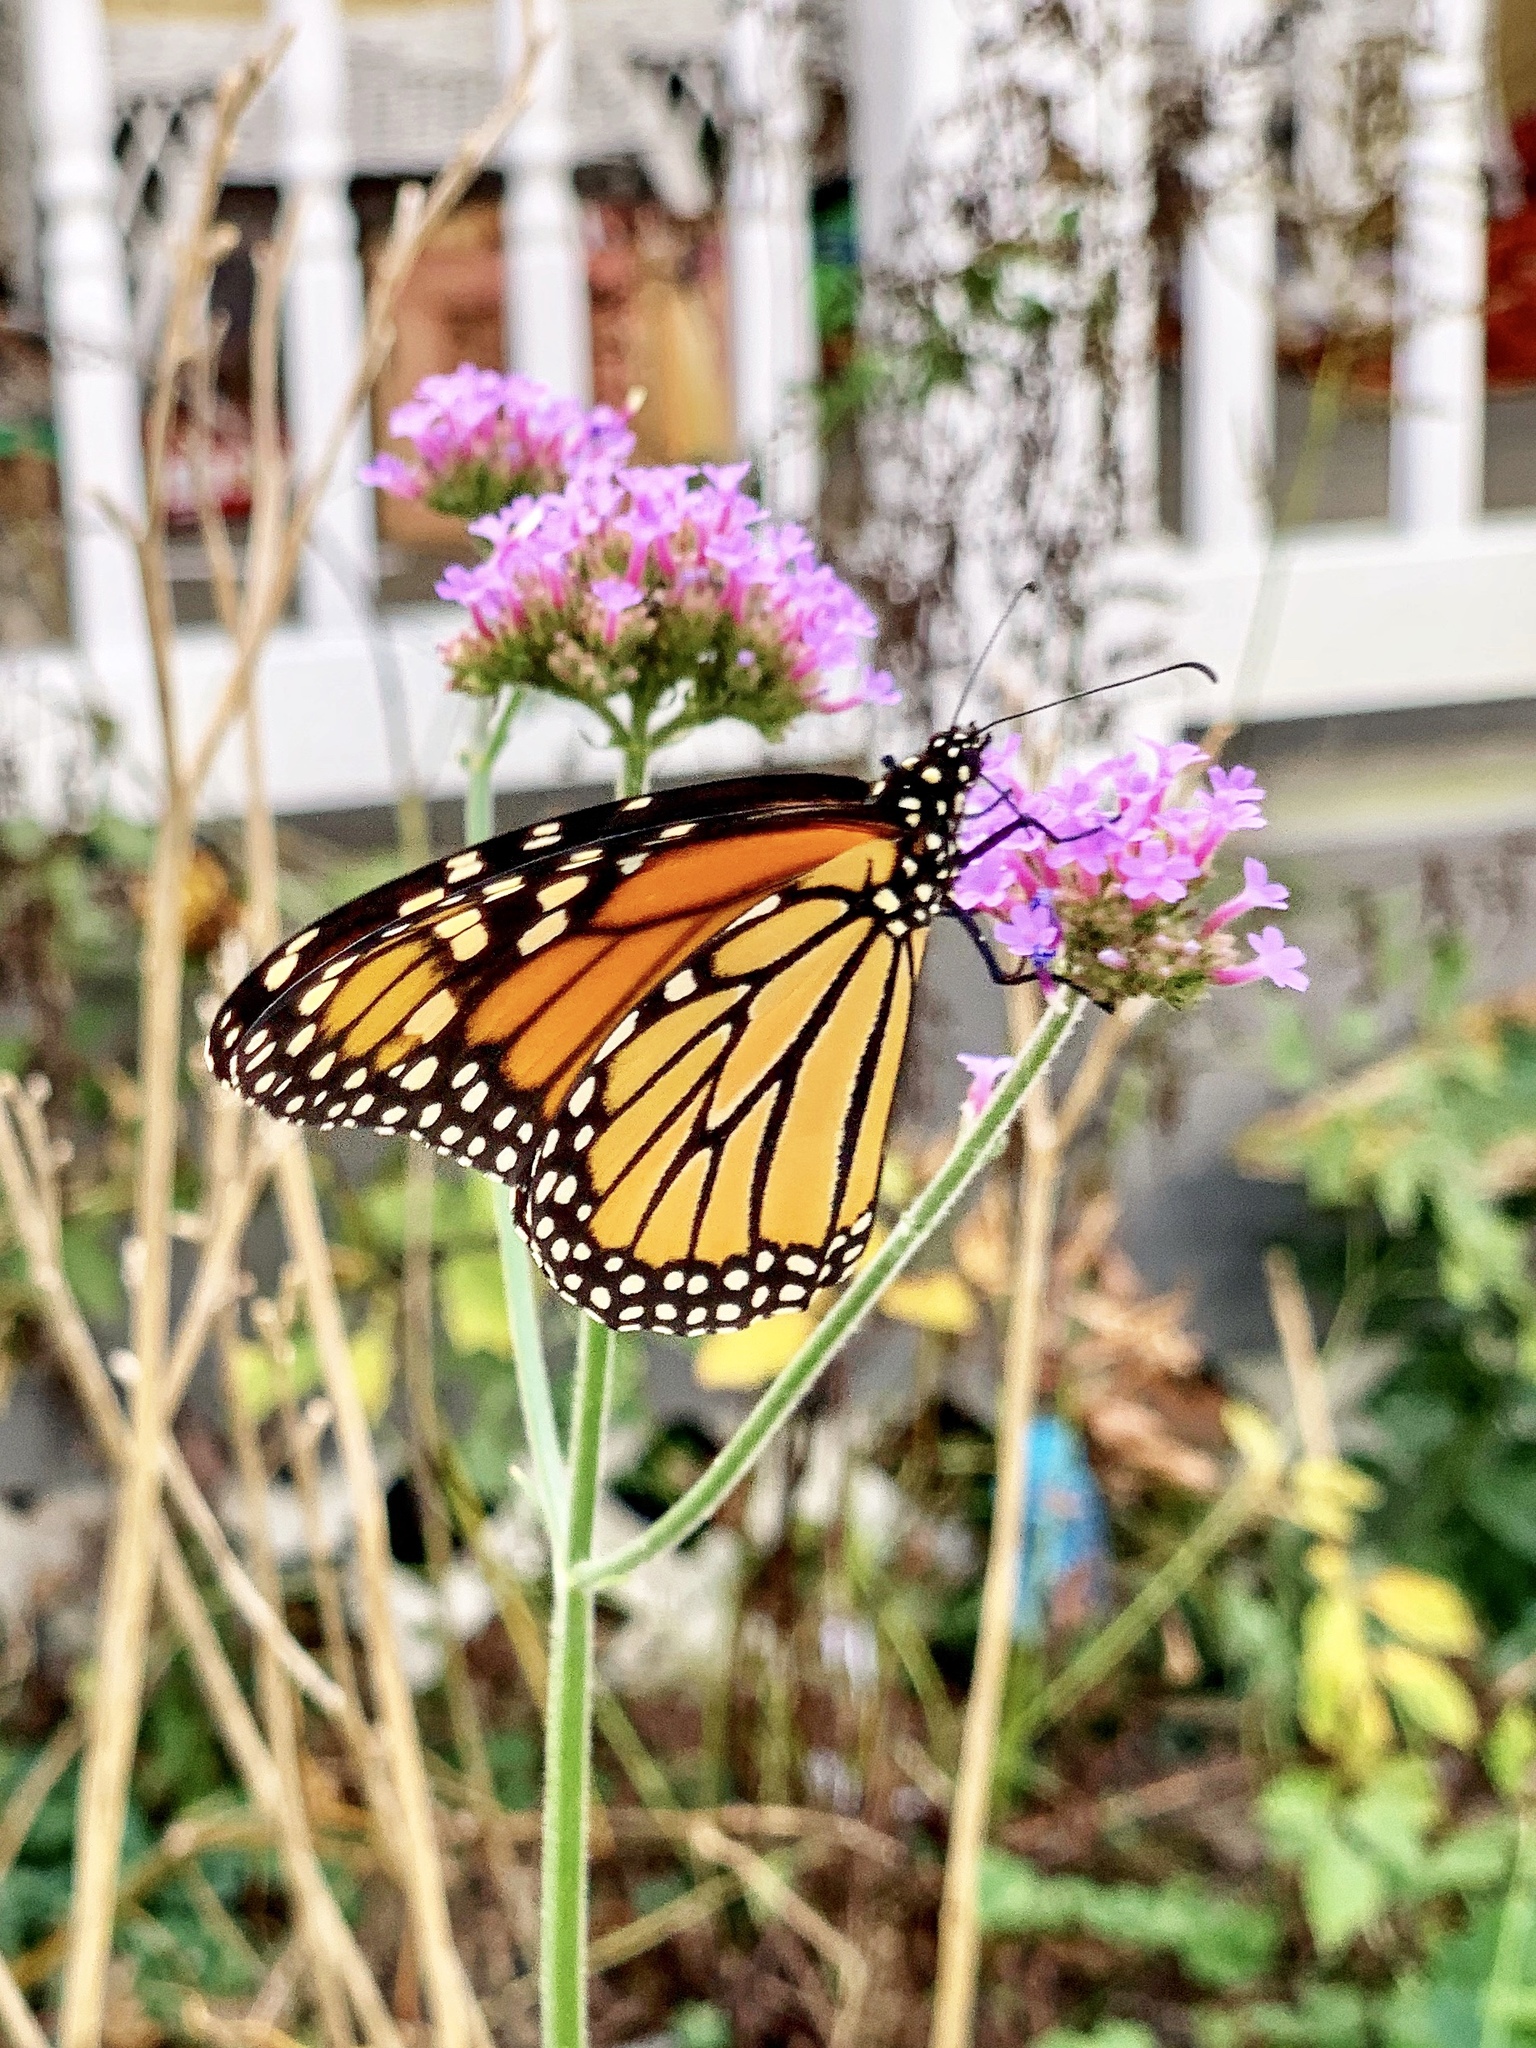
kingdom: Animalia
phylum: Arthropoda
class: Insecta
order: Lepidoptera
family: Nymphalidae
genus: Danaus
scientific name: Danaus plexippus
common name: Monarch
